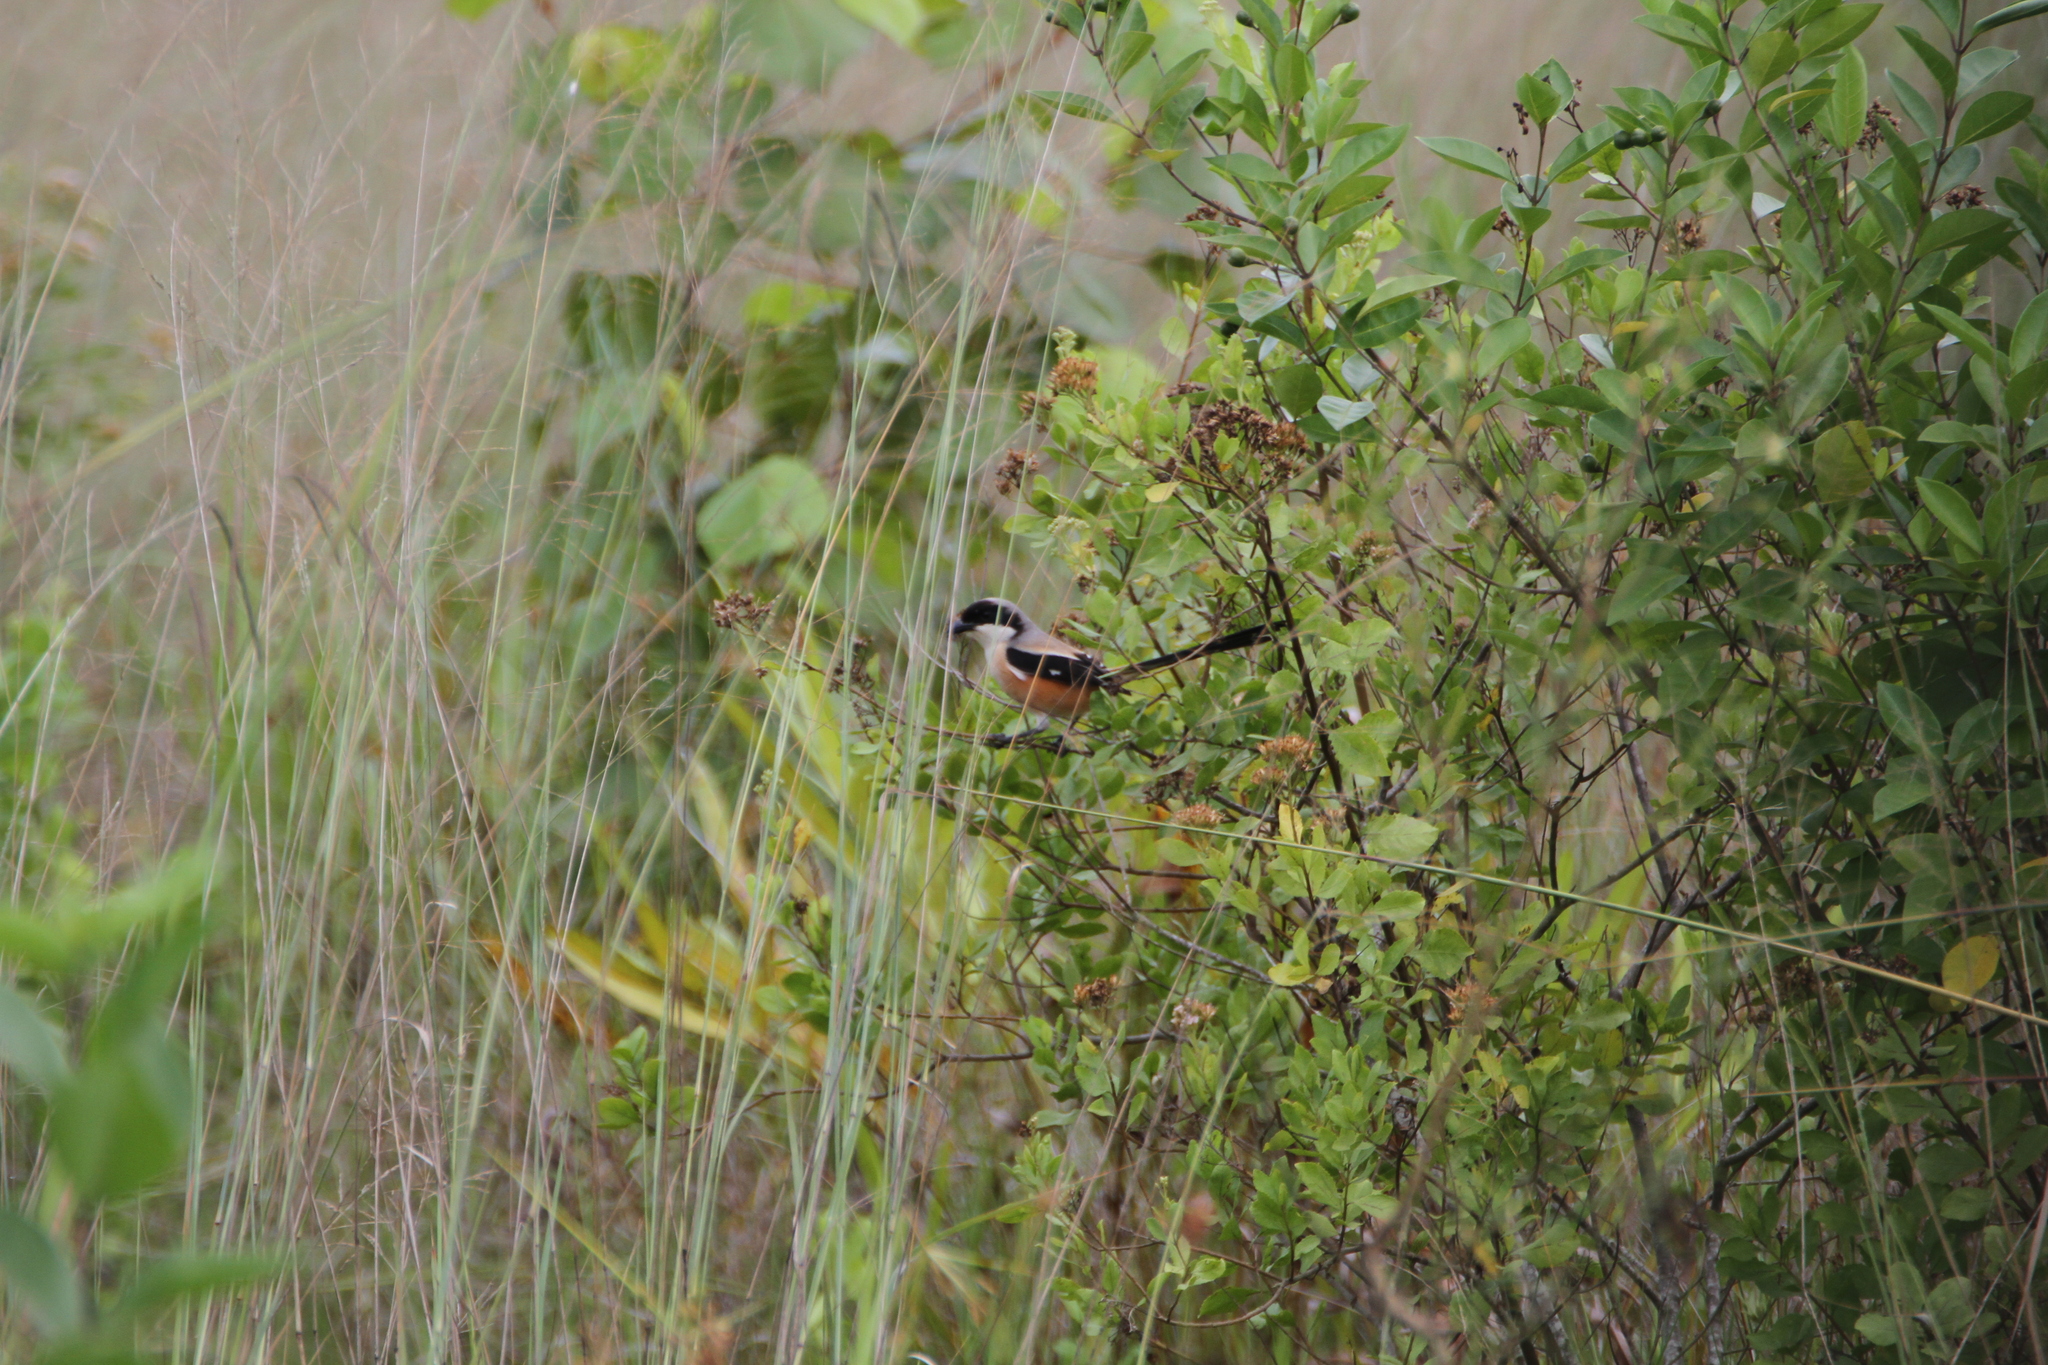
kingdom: Animalia
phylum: Chordata
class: Aves
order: Passeriformes
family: Laniidae
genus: Lanius
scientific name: Lanius schach
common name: Long-tailed shrike
